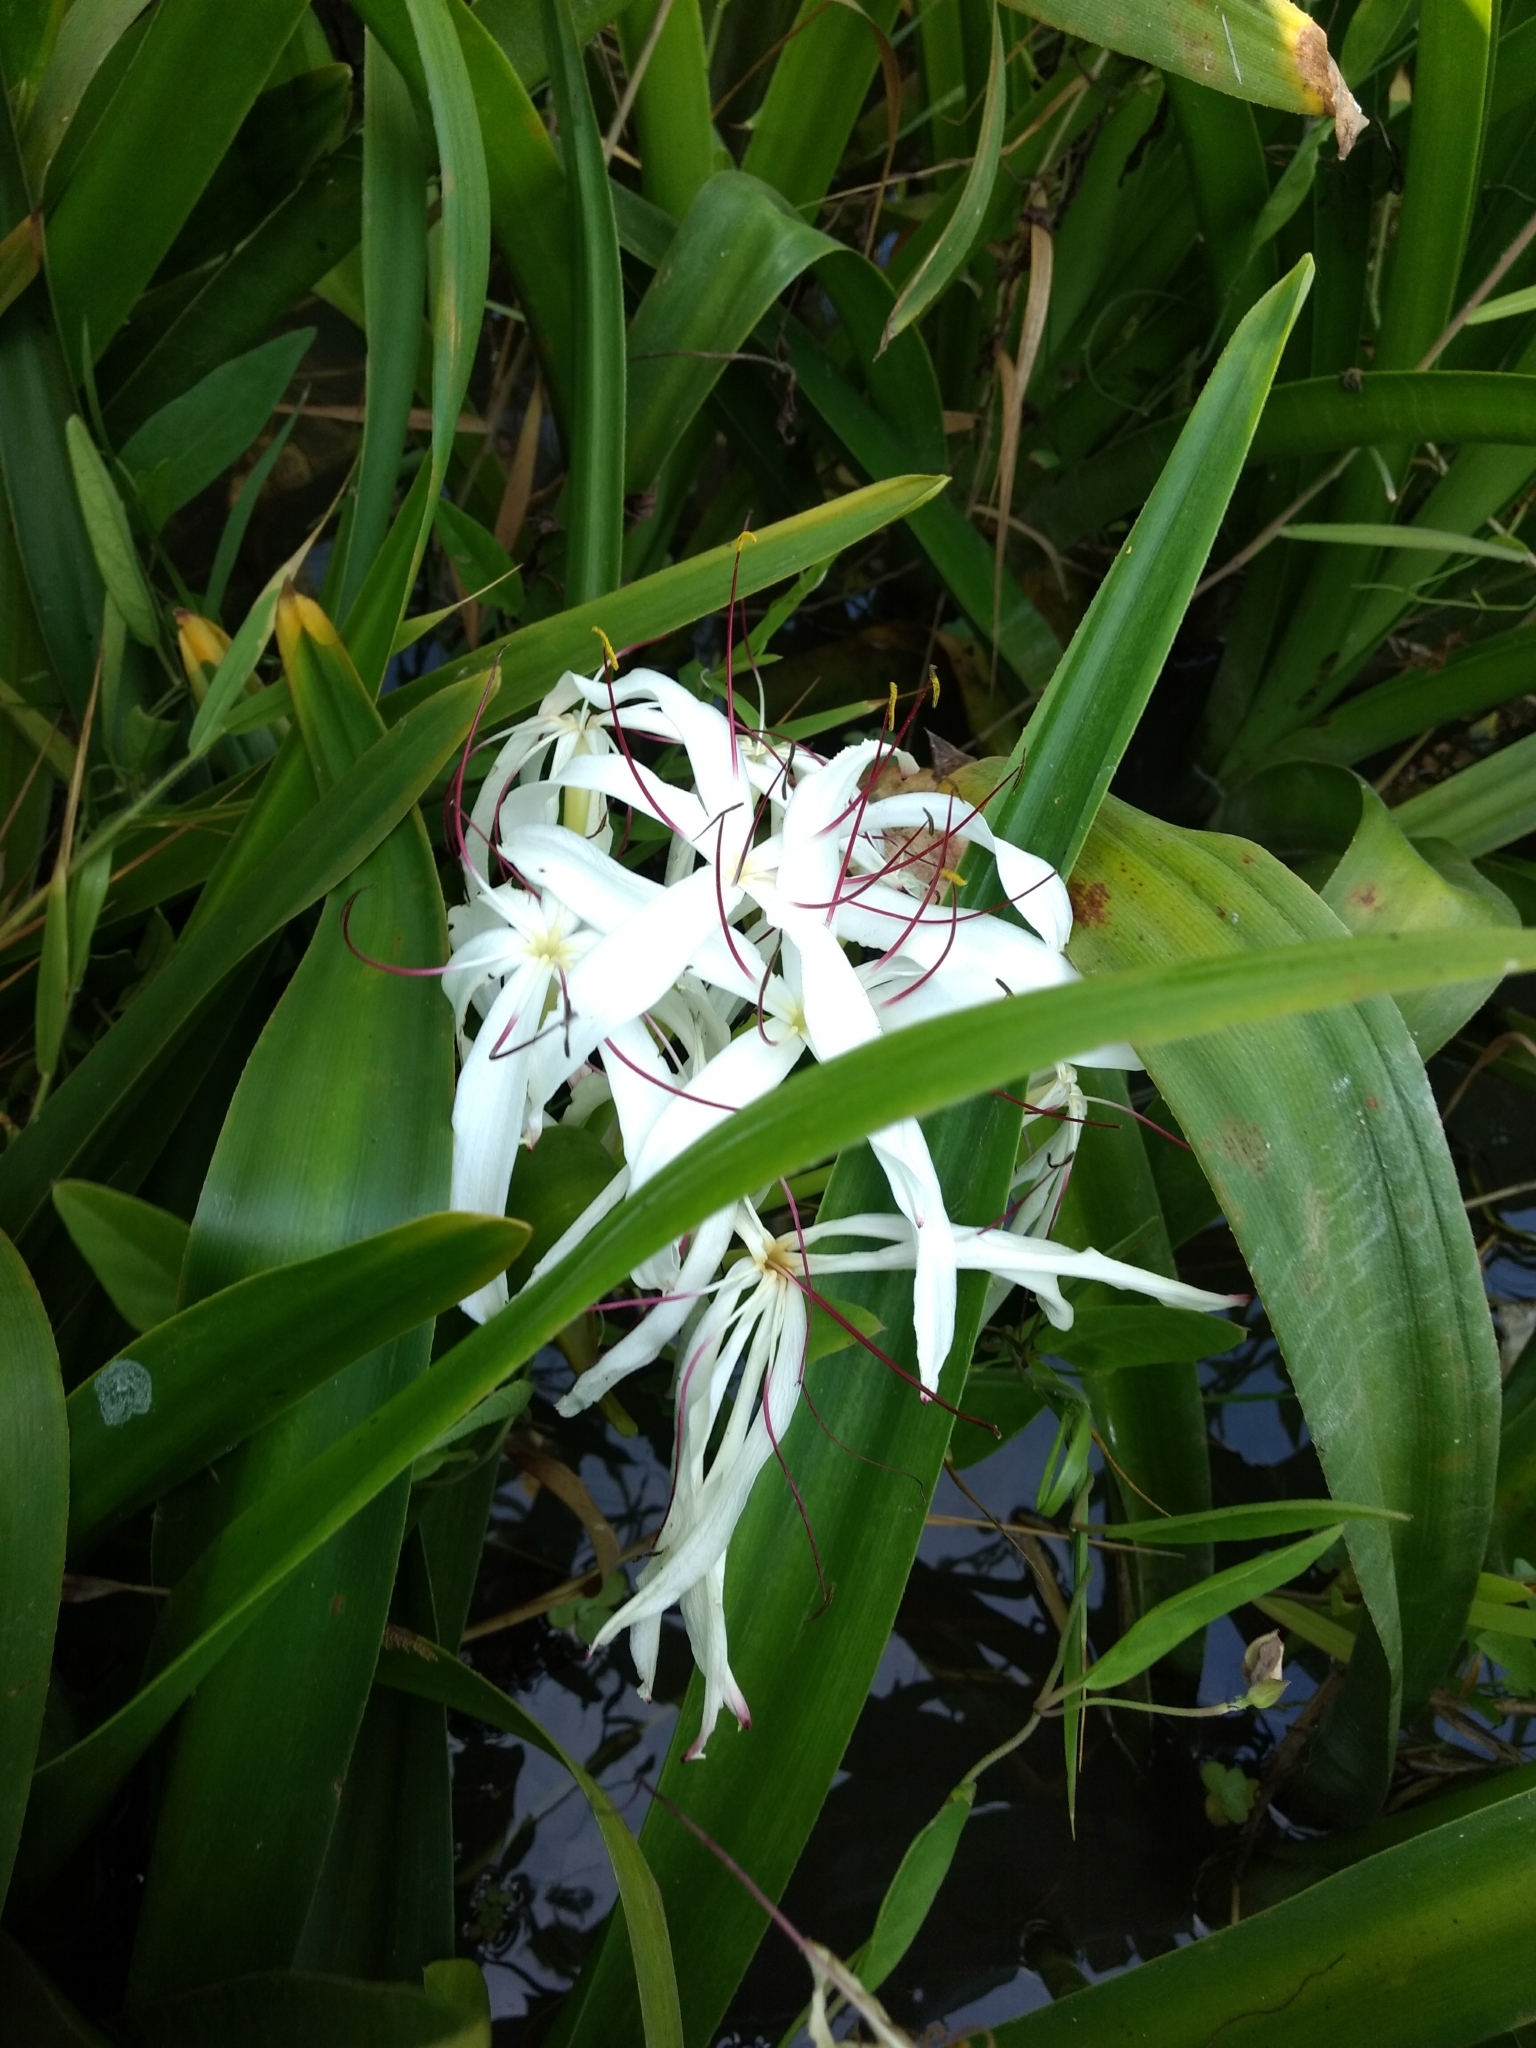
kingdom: Plantae
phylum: Tracheophyta
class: Liliopsida
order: Asparagales
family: Amaryllidaceae
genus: Crinum
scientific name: Crinum asiaticum
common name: Poisonbulb
